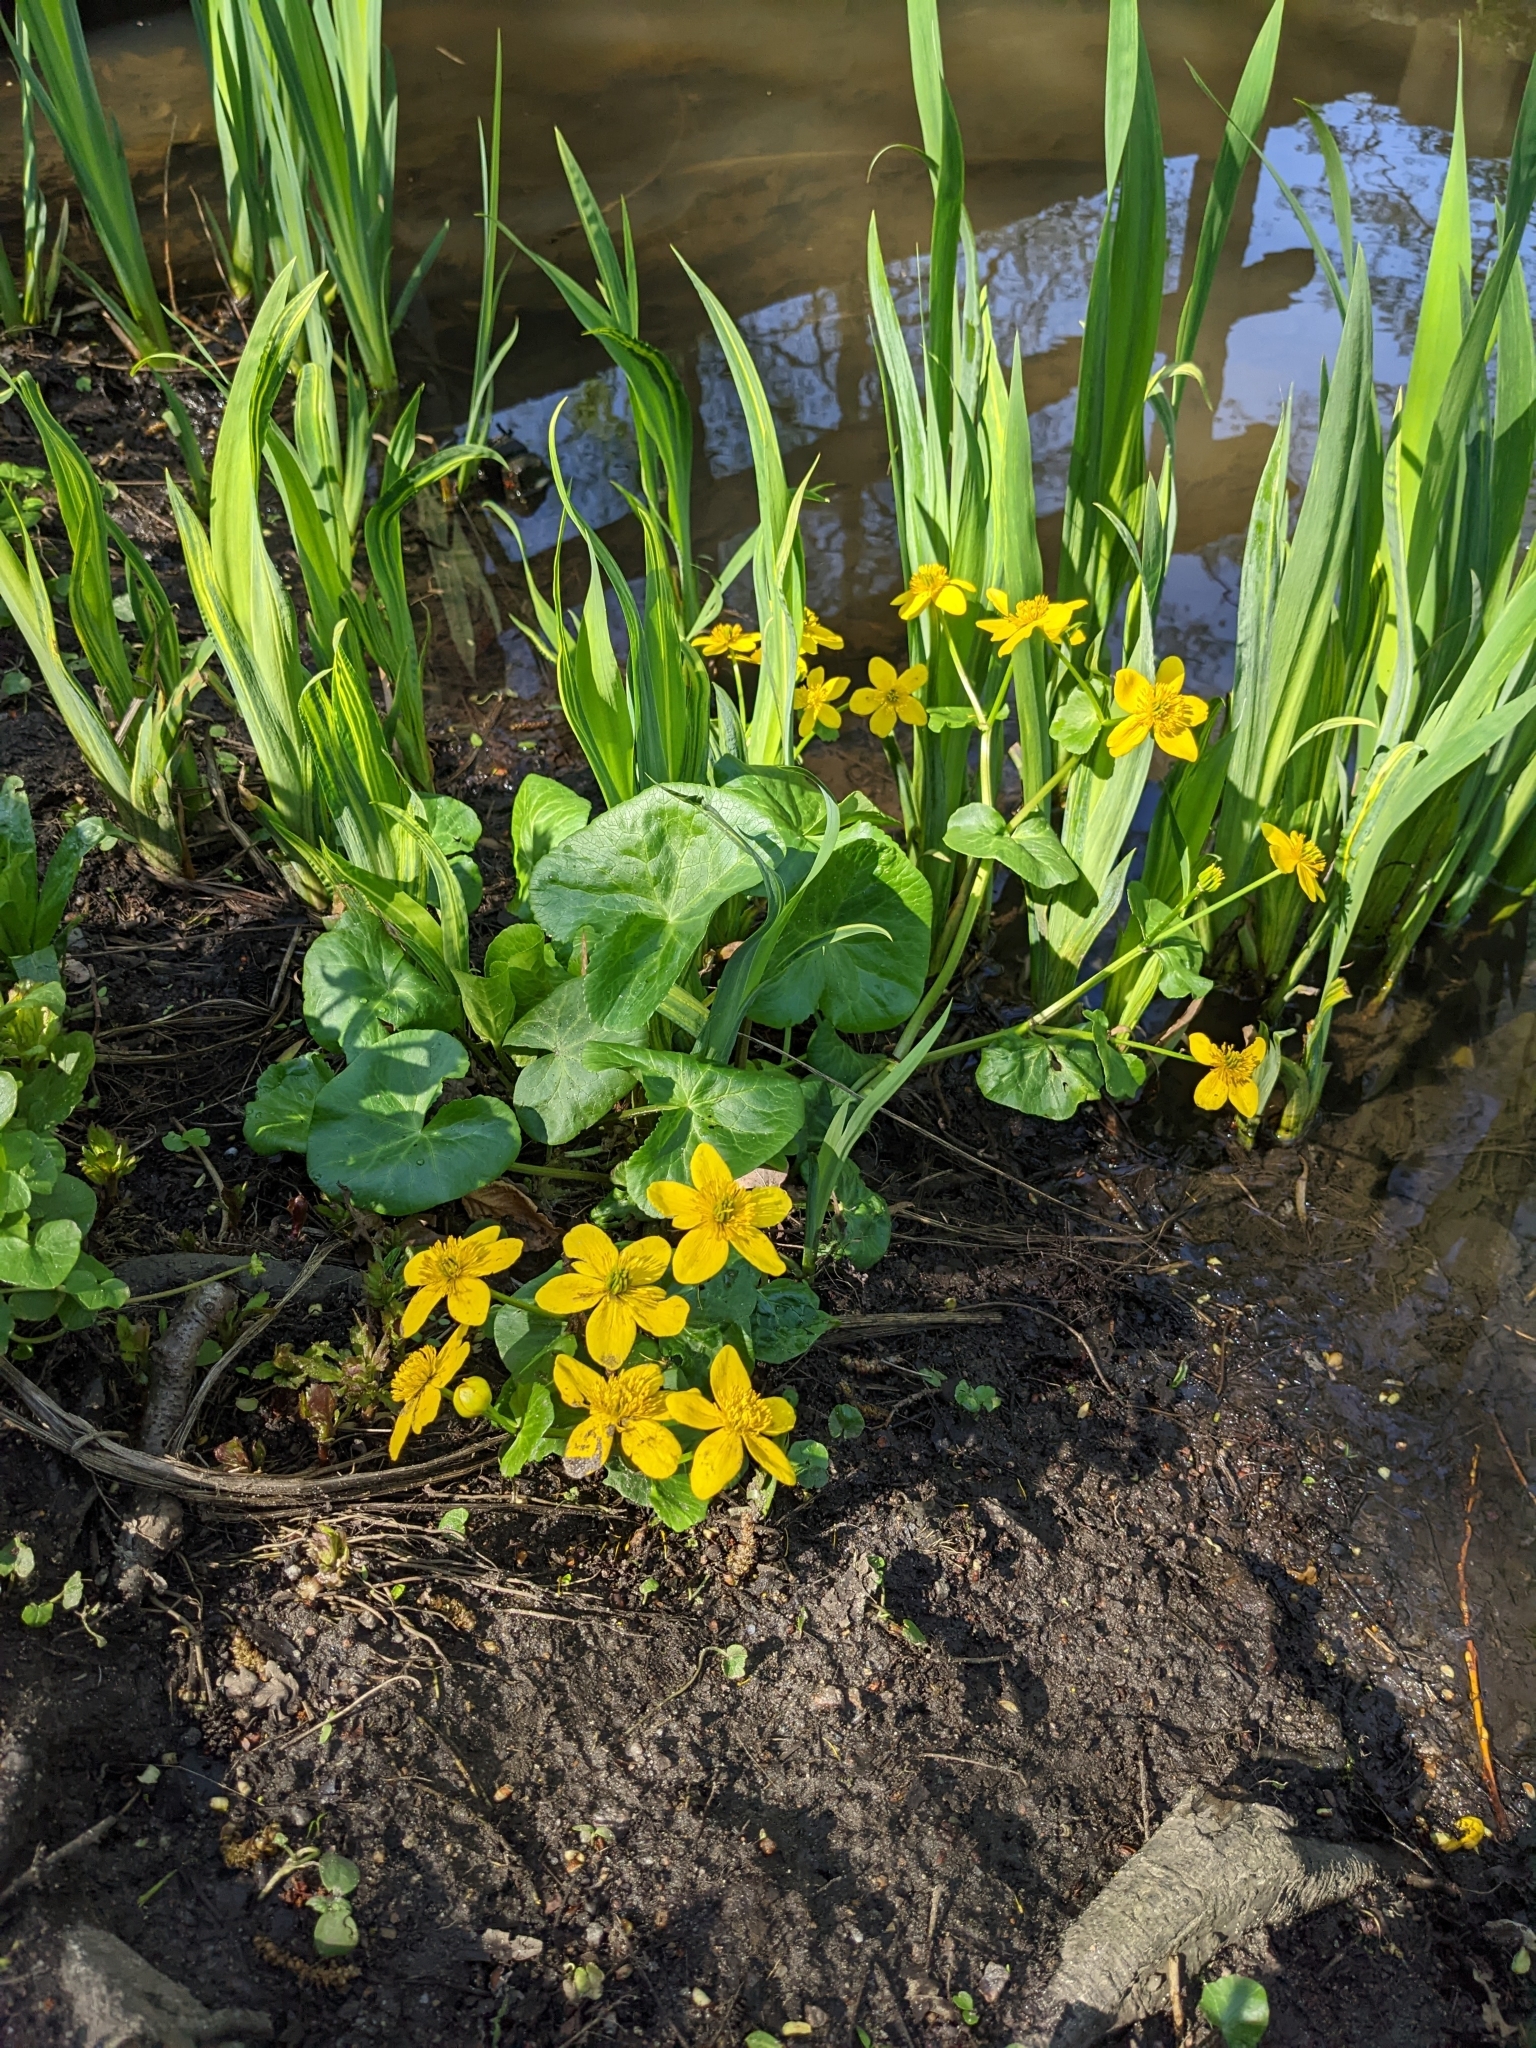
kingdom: Plantae
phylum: Tracheophyta
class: Magnoliopsida
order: Ranunculales
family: Ranunculaceae
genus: Caltha
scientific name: Caltha palustris
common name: Marsh marigold
